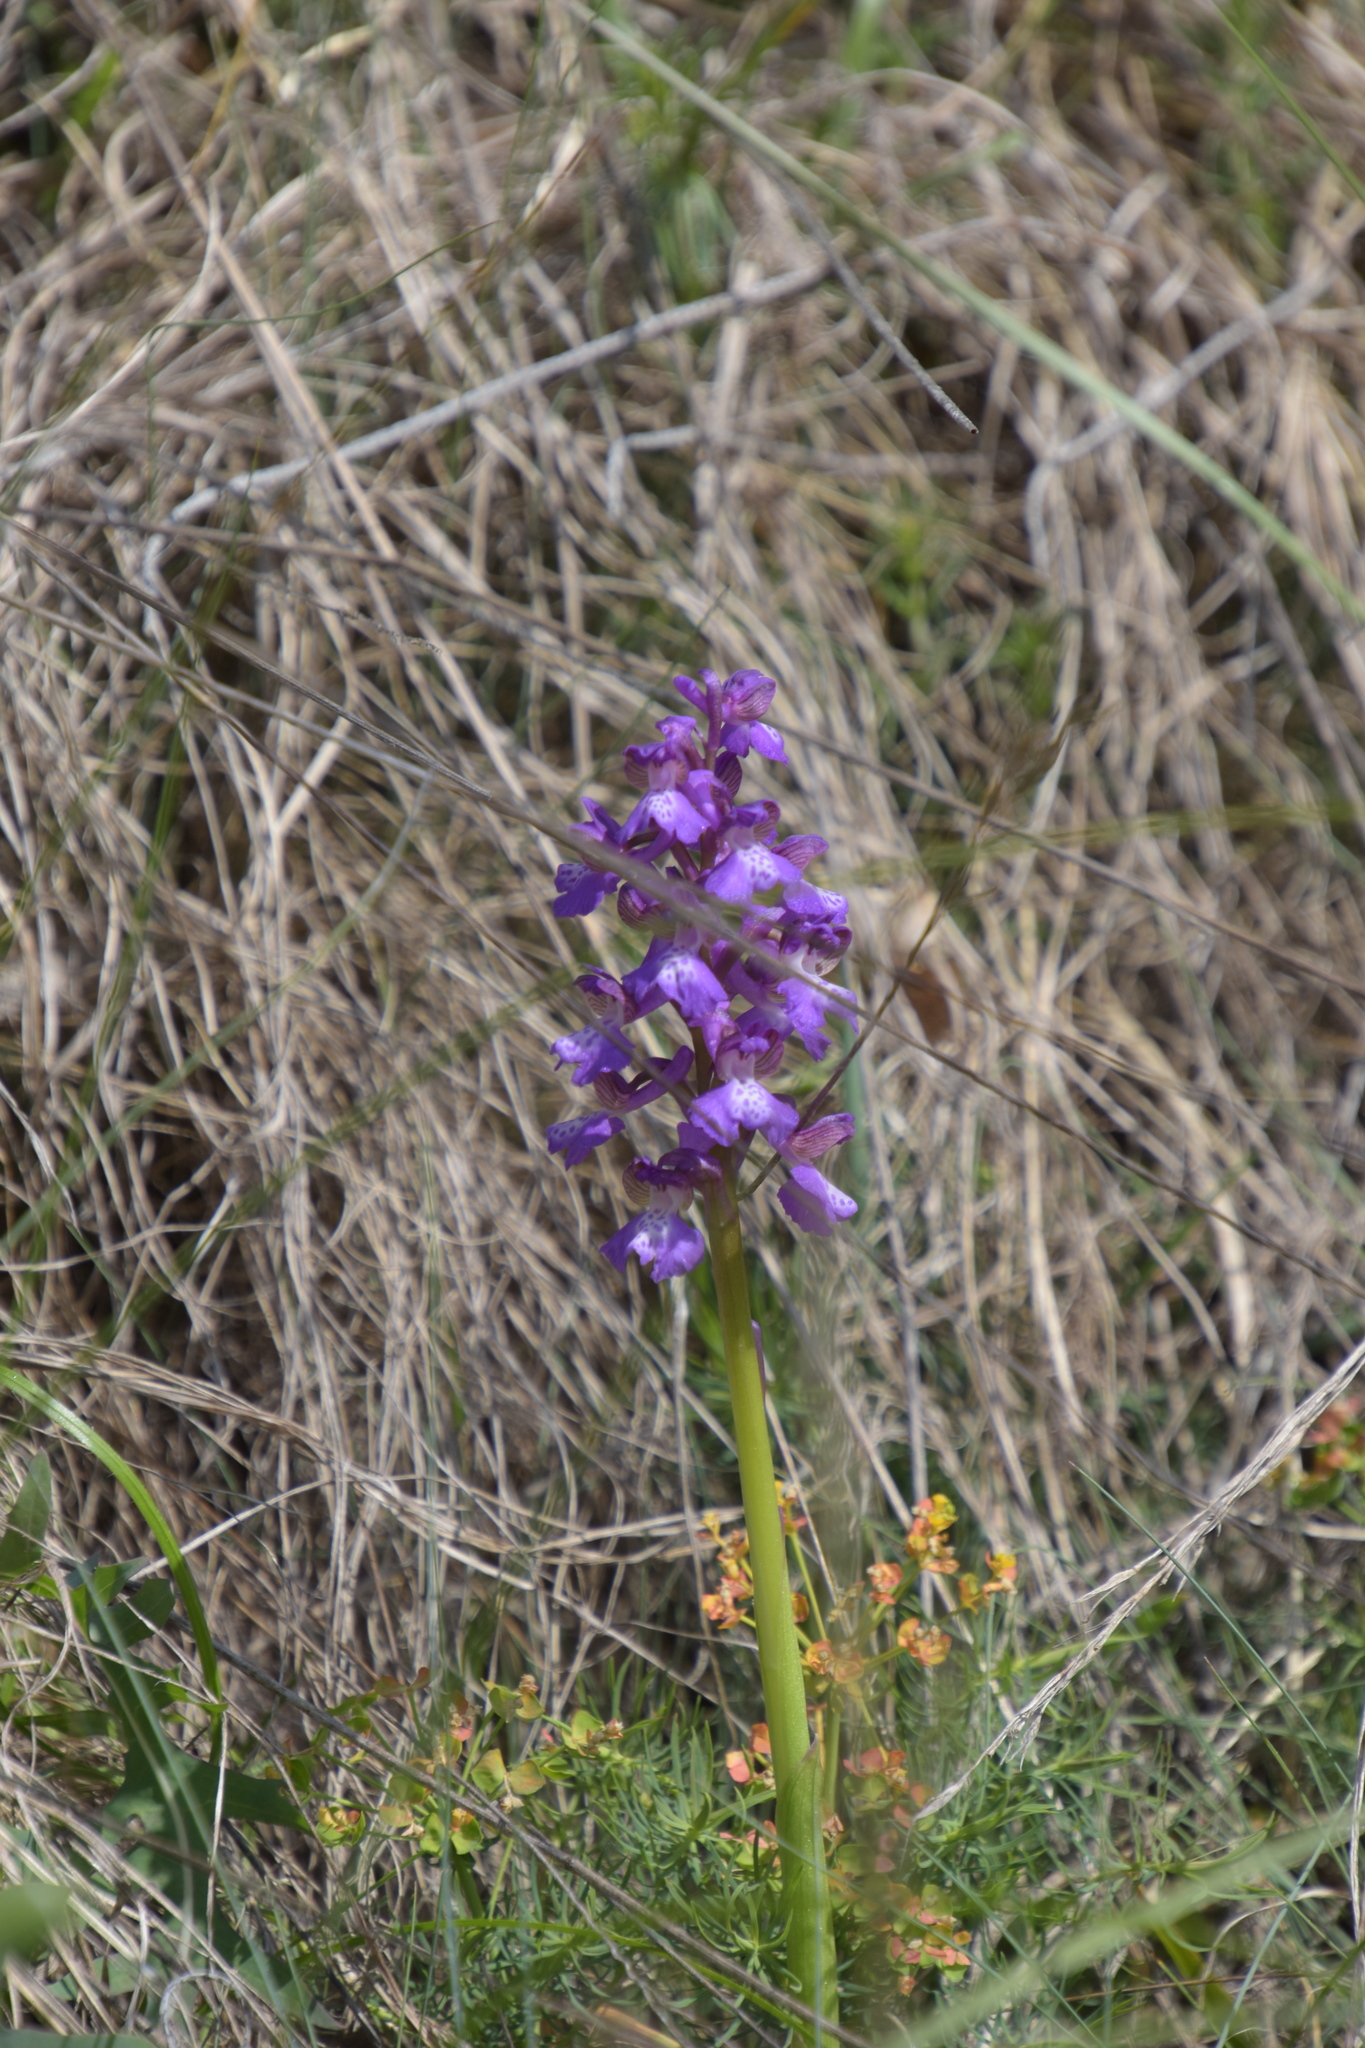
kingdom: Plantae
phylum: Tracheophyta
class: Liliopsida
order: Asparagales
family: Orchidaceae
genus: Anacamptis
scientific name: Anacamptis morio
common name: Green-winged orchid
